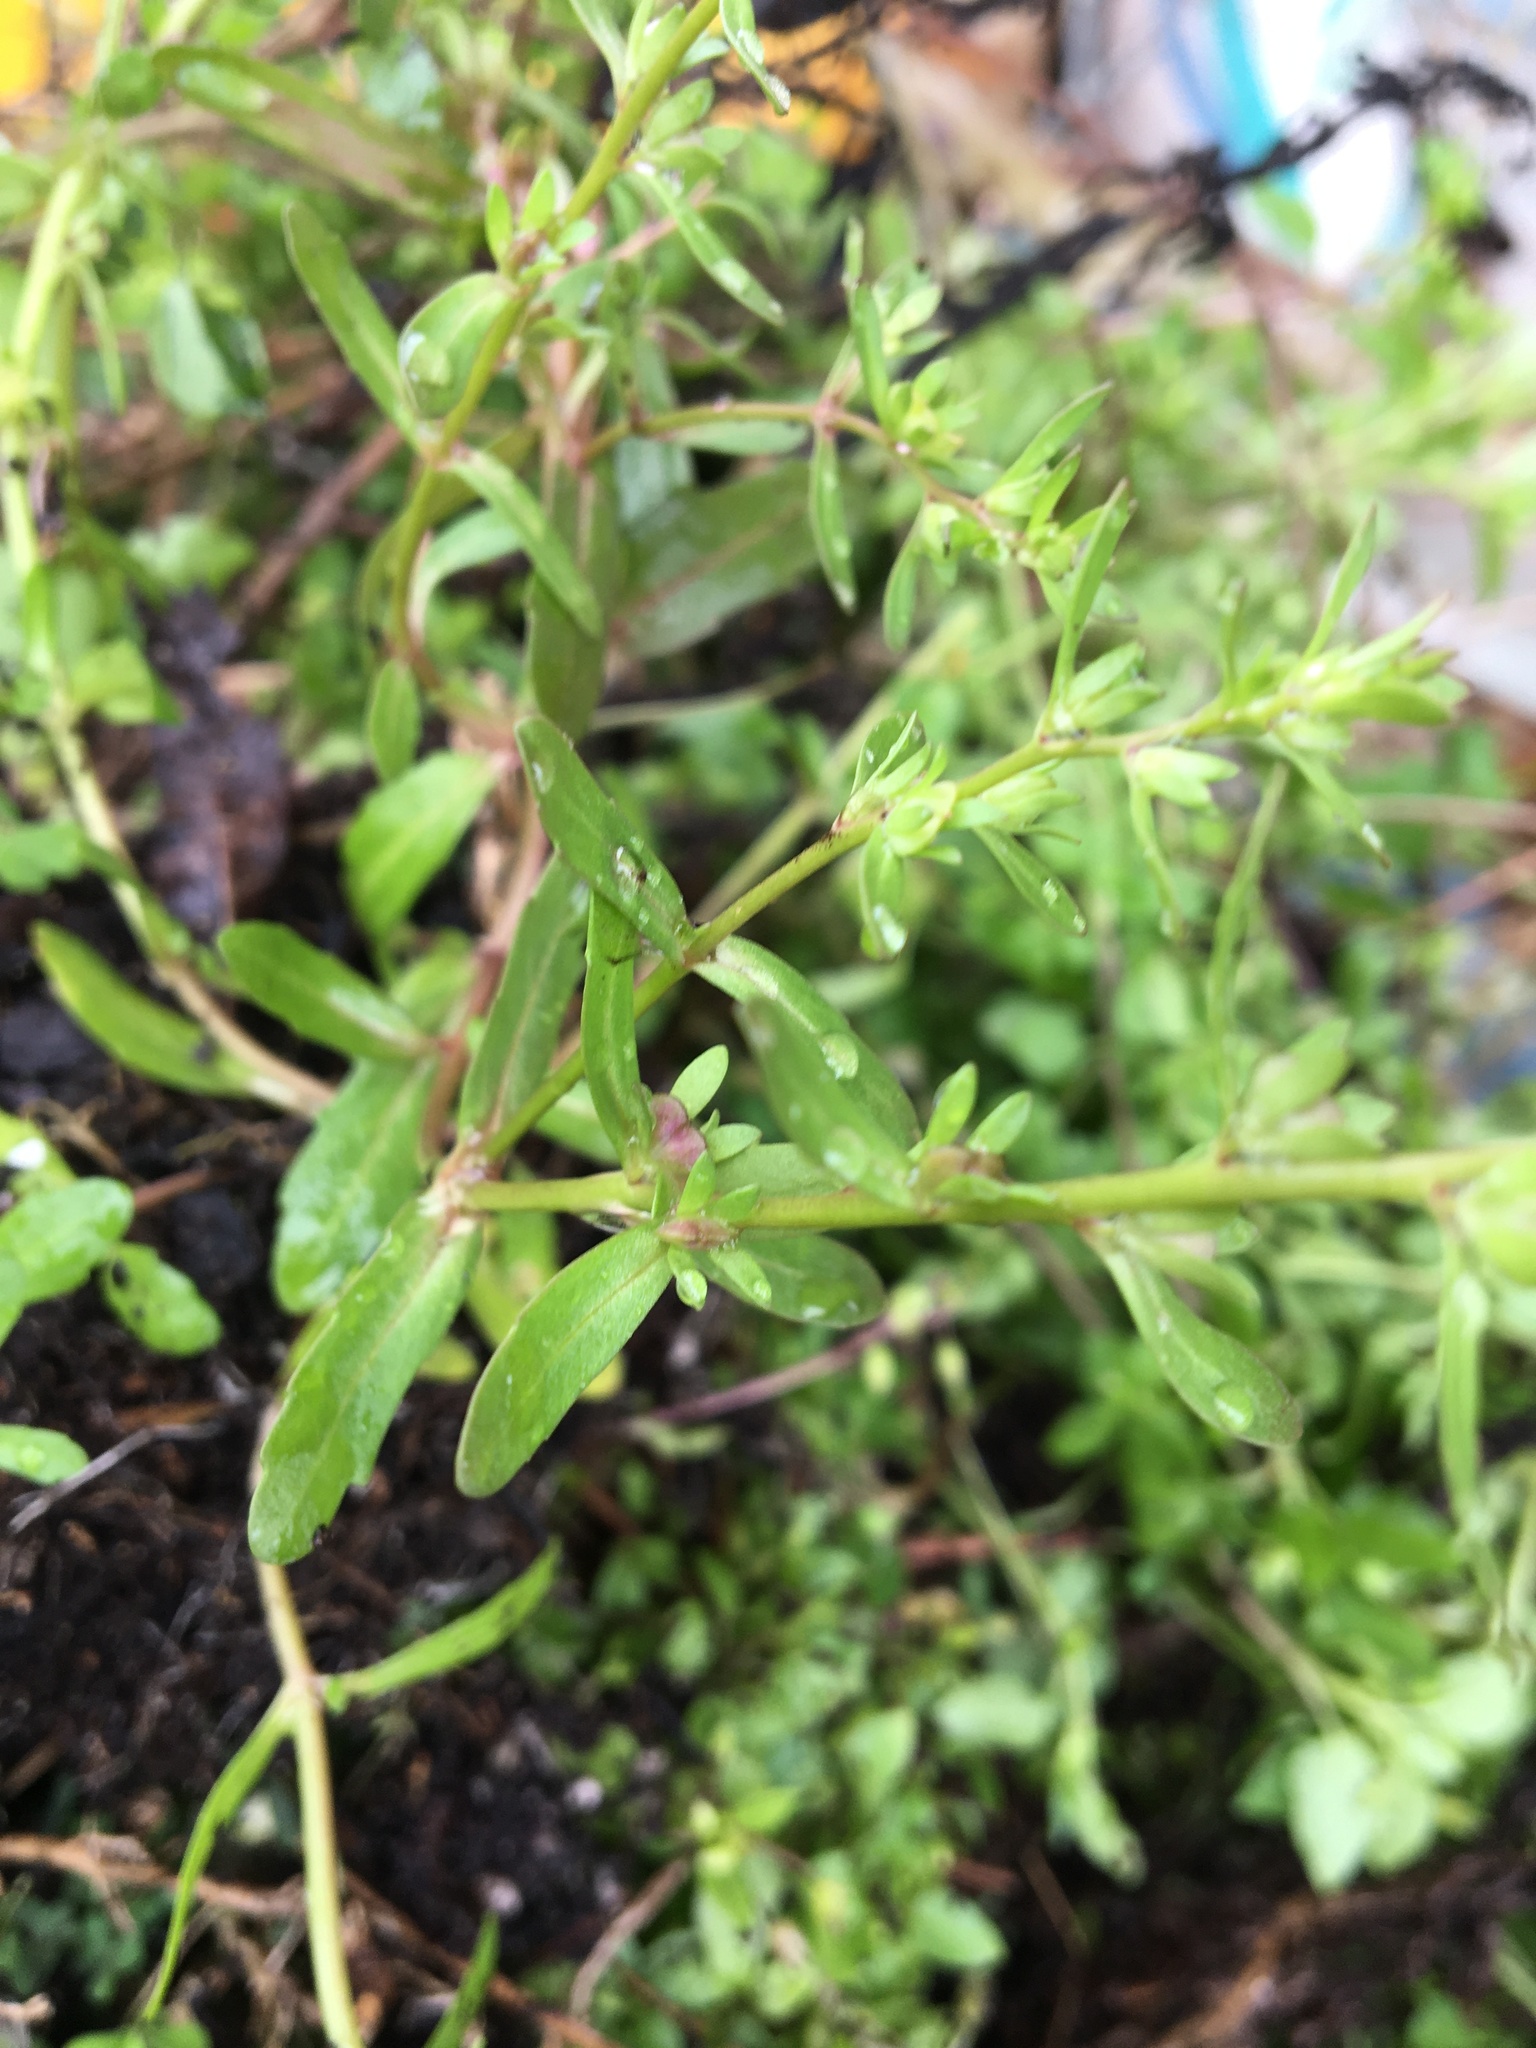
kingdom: Plantae
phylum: Tracheophyta
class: Magnoliopsida
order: Lamiales
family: Plantaginaceae
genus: Veronica
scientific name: Veronica peregrina
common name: Neckweed
